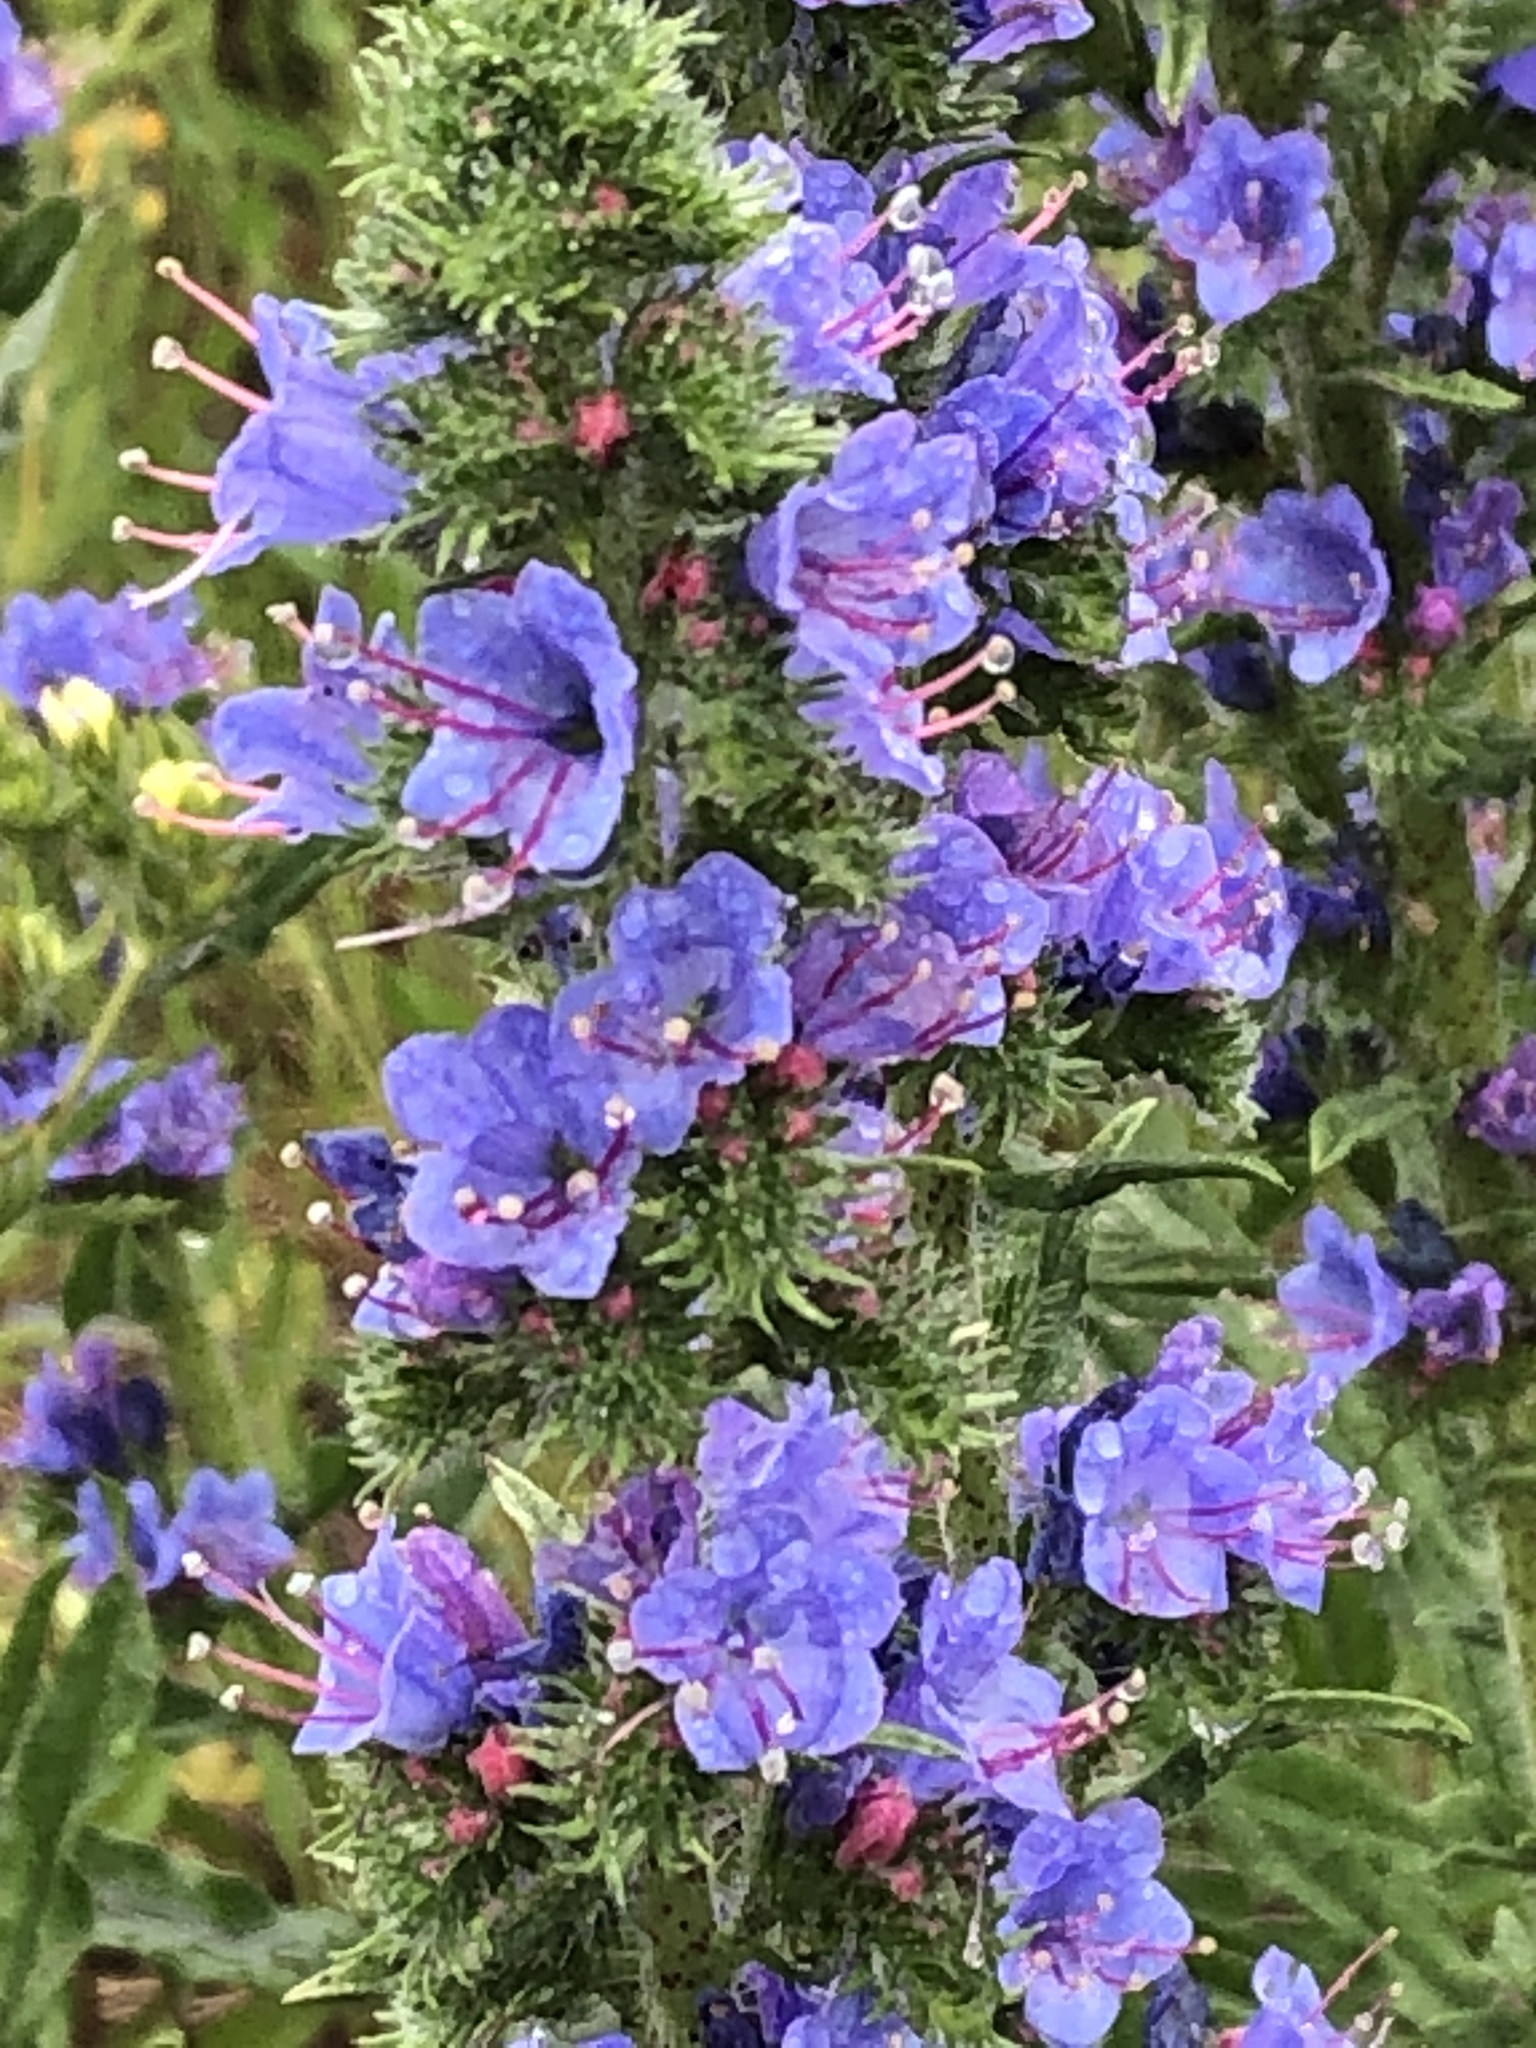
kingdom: Plantae
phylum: Tracheophyta
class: Magnoliopsida
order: Boraginales
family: Boraginaceae
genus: Echium
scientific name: Echium vulgare
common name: Common viper's bugloss
